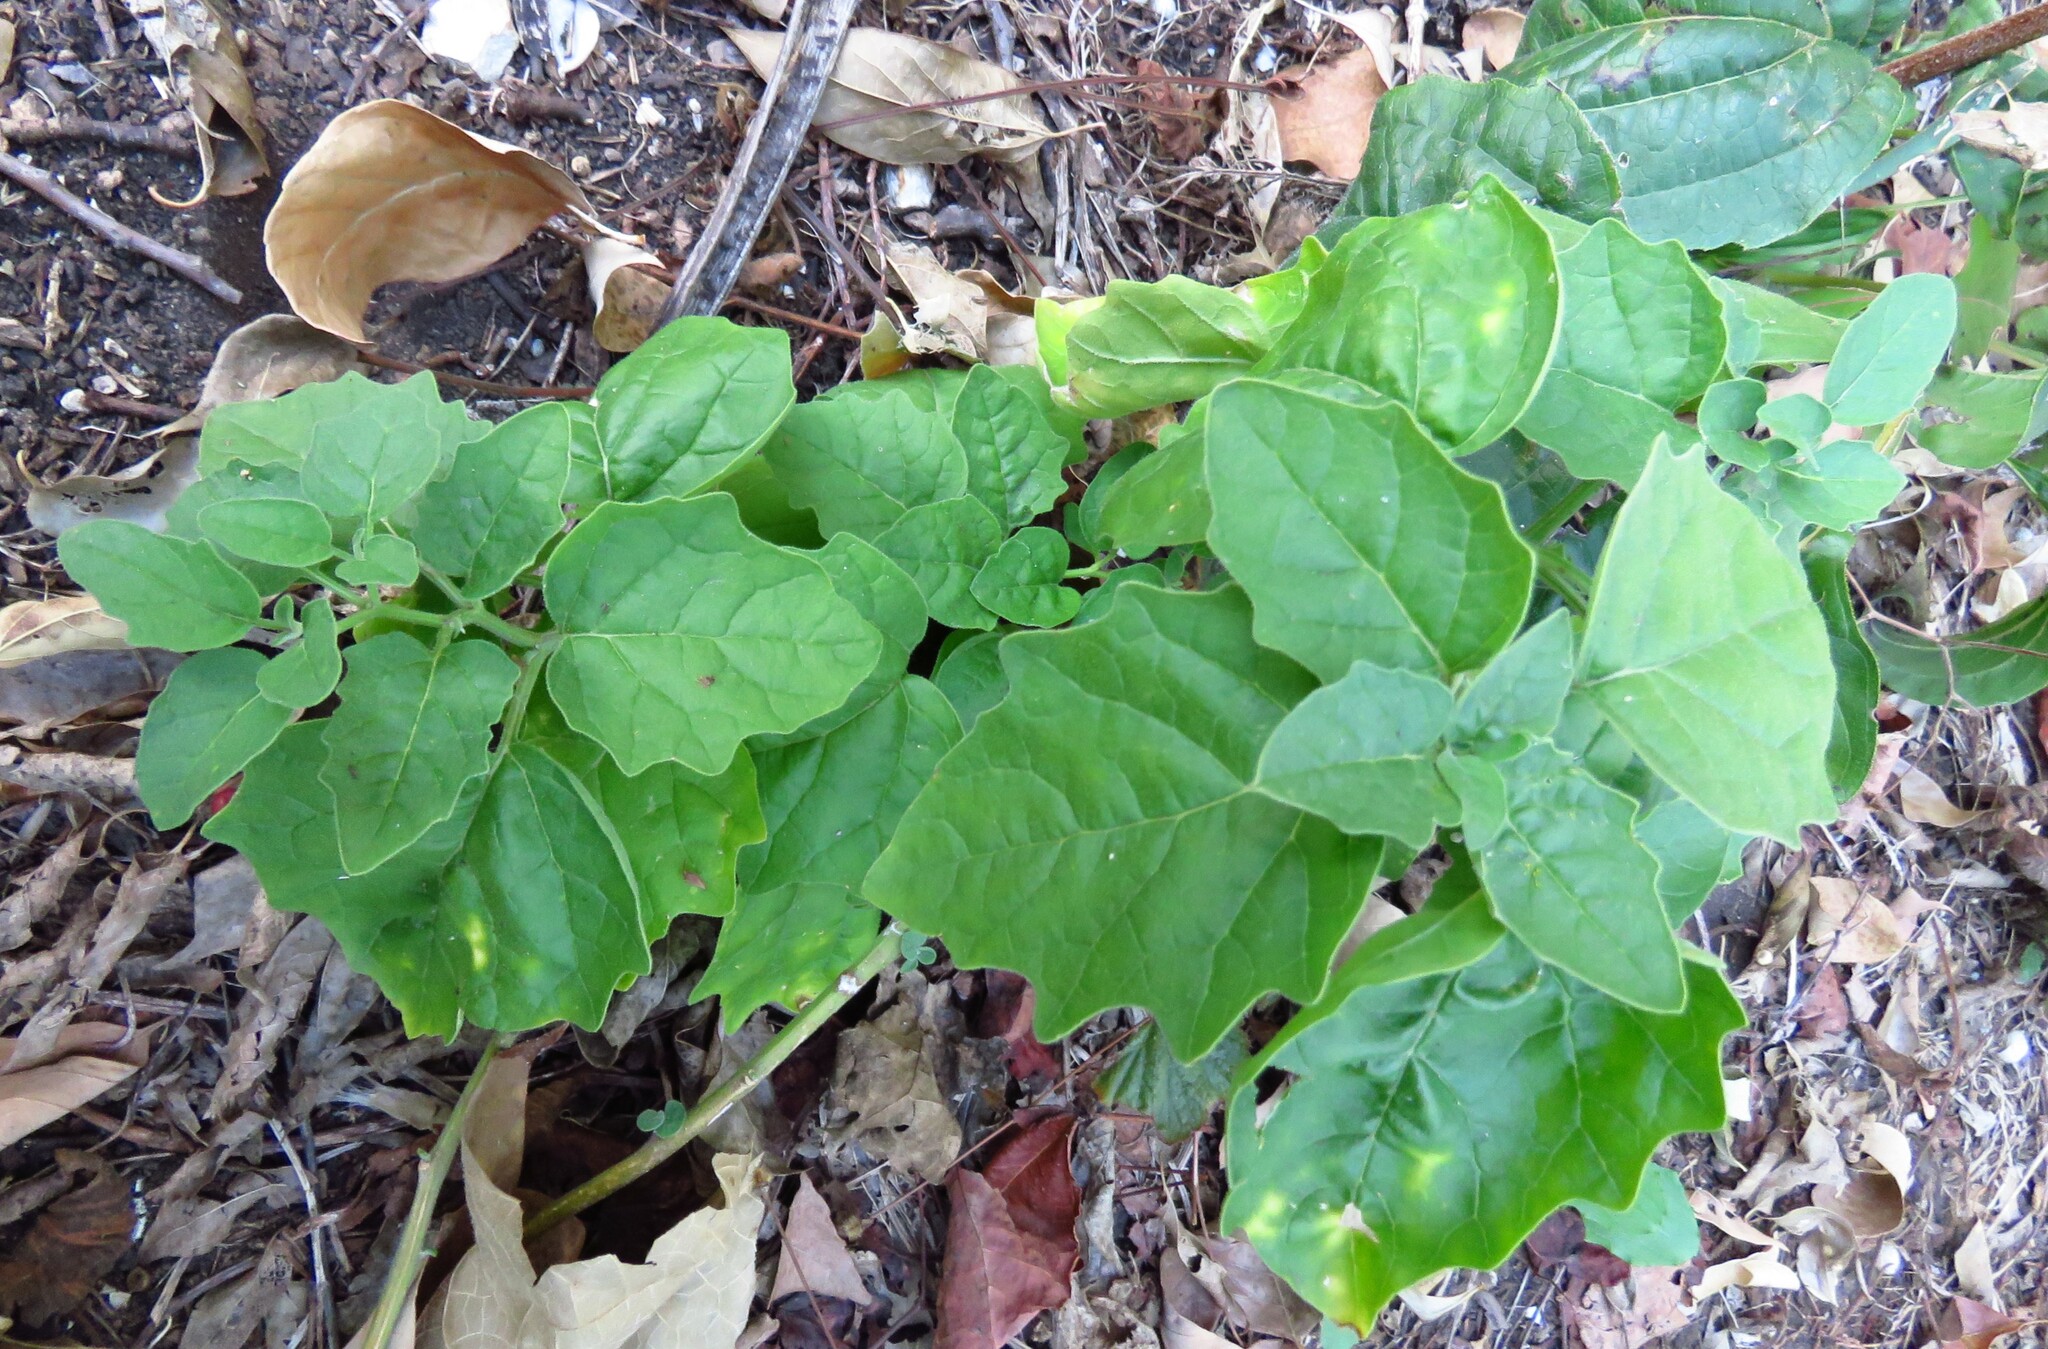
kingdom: Plantae
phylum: Tracheophyta
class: Magnoliopsida
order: Solanales
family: Solanaceae
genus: Physalis
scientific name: Physalis cinerascens
